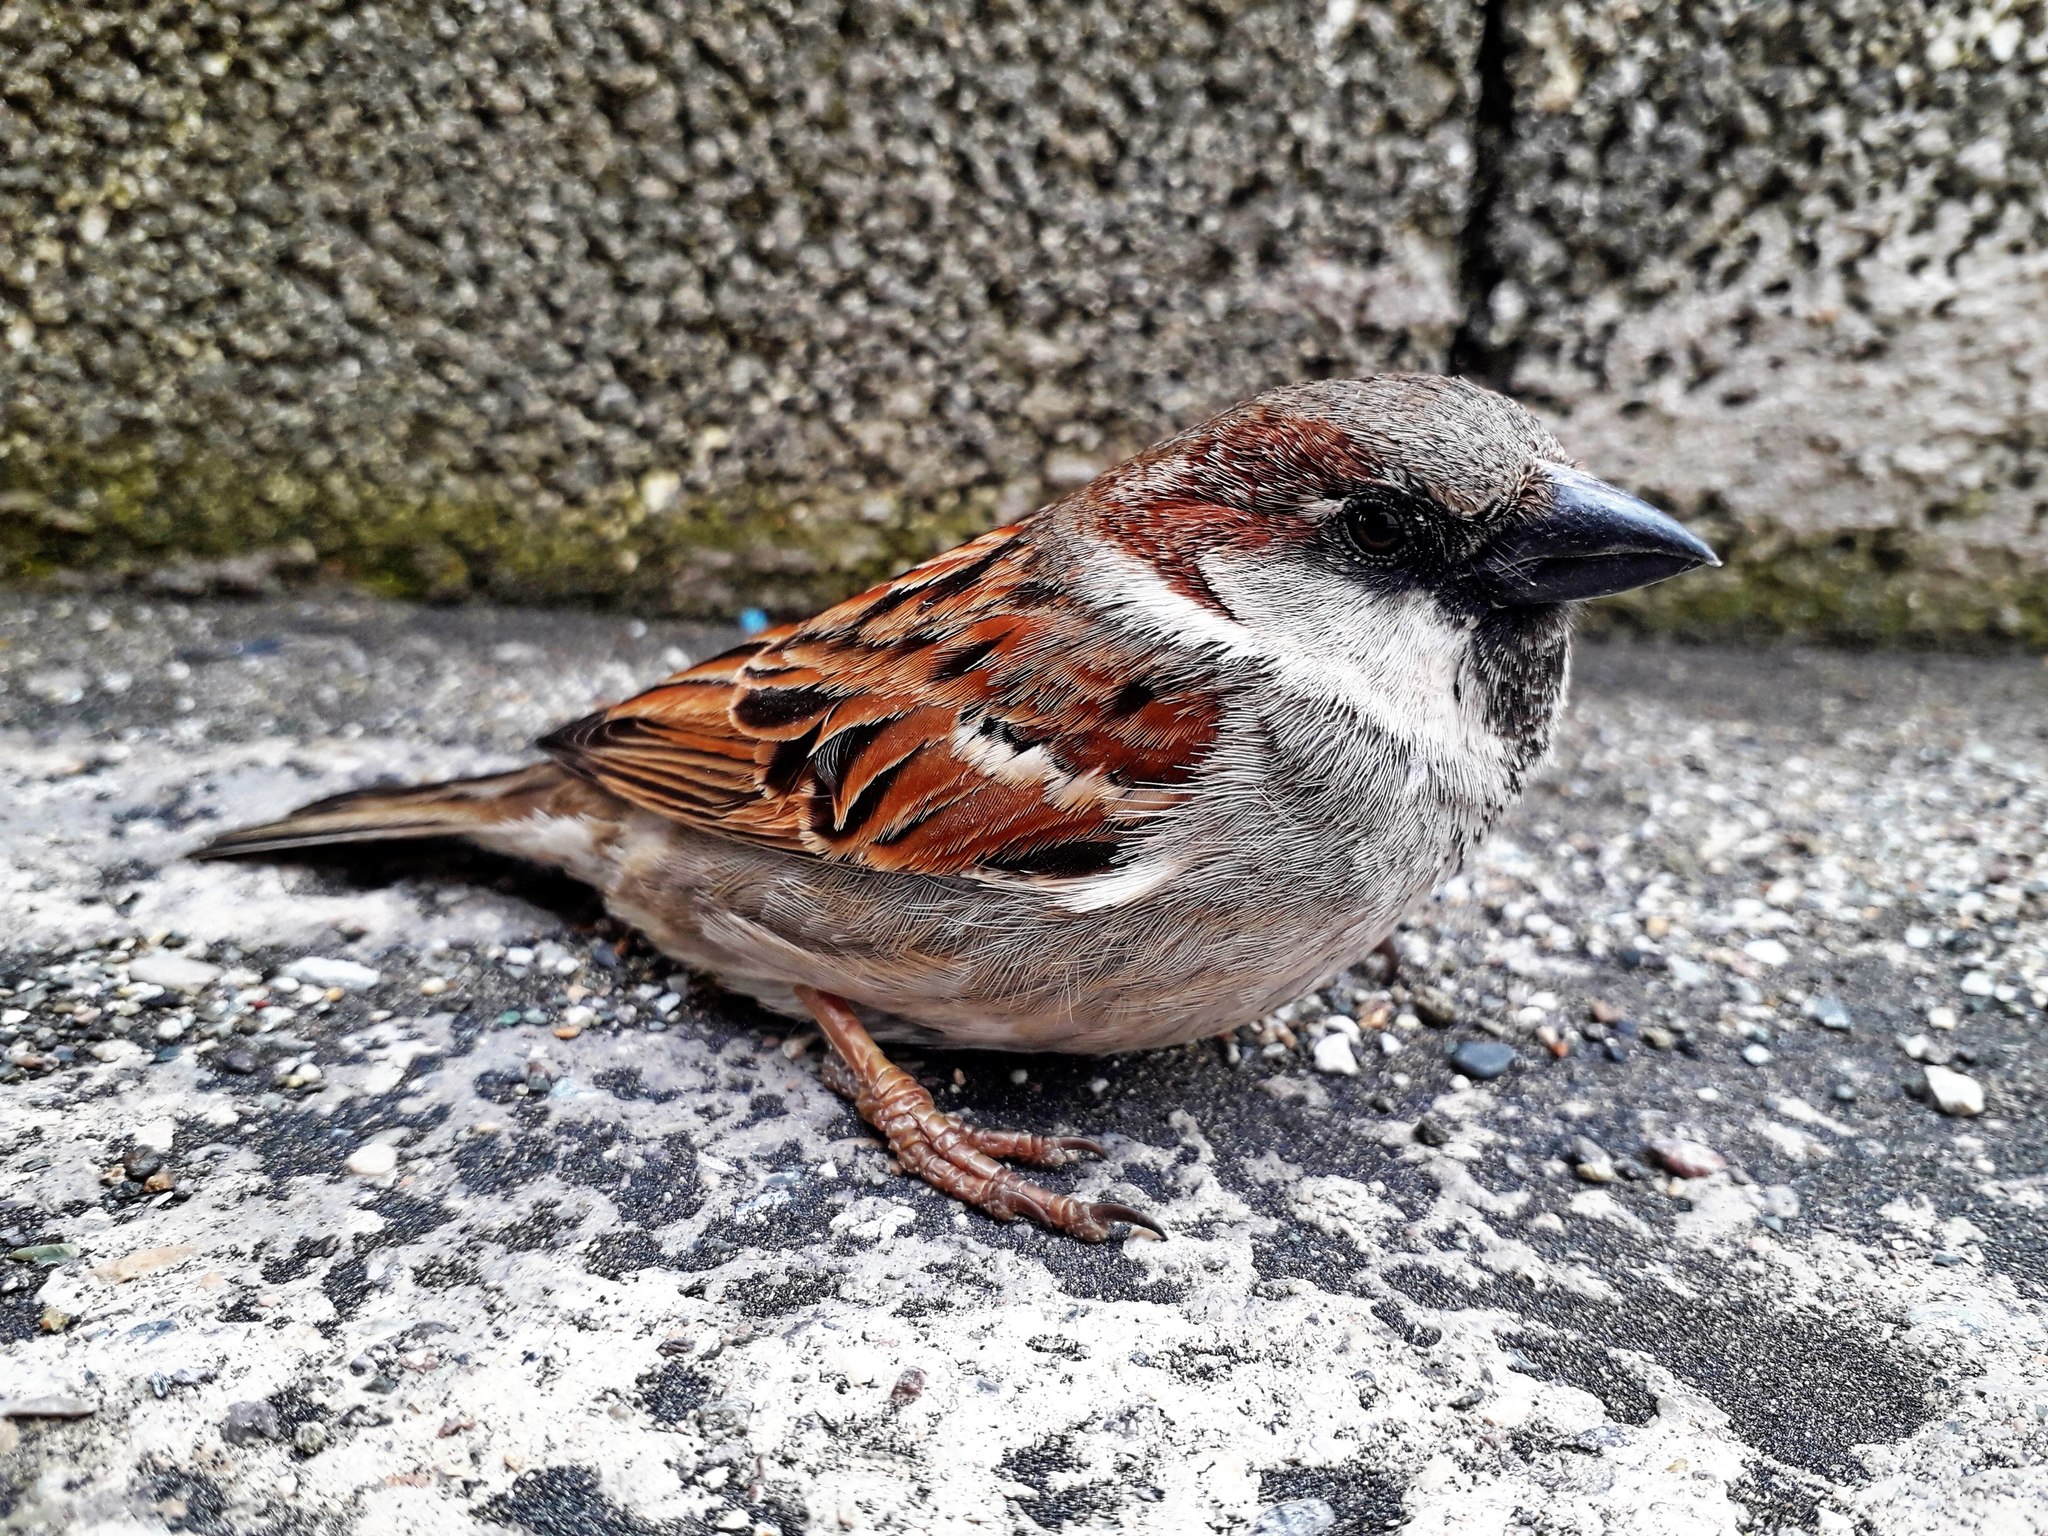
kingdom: Animalia
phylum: Chordata
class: Aves
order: Passeriformes
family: Passeridae
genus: Passer
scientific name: Passer domesticus
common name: House sparrow
